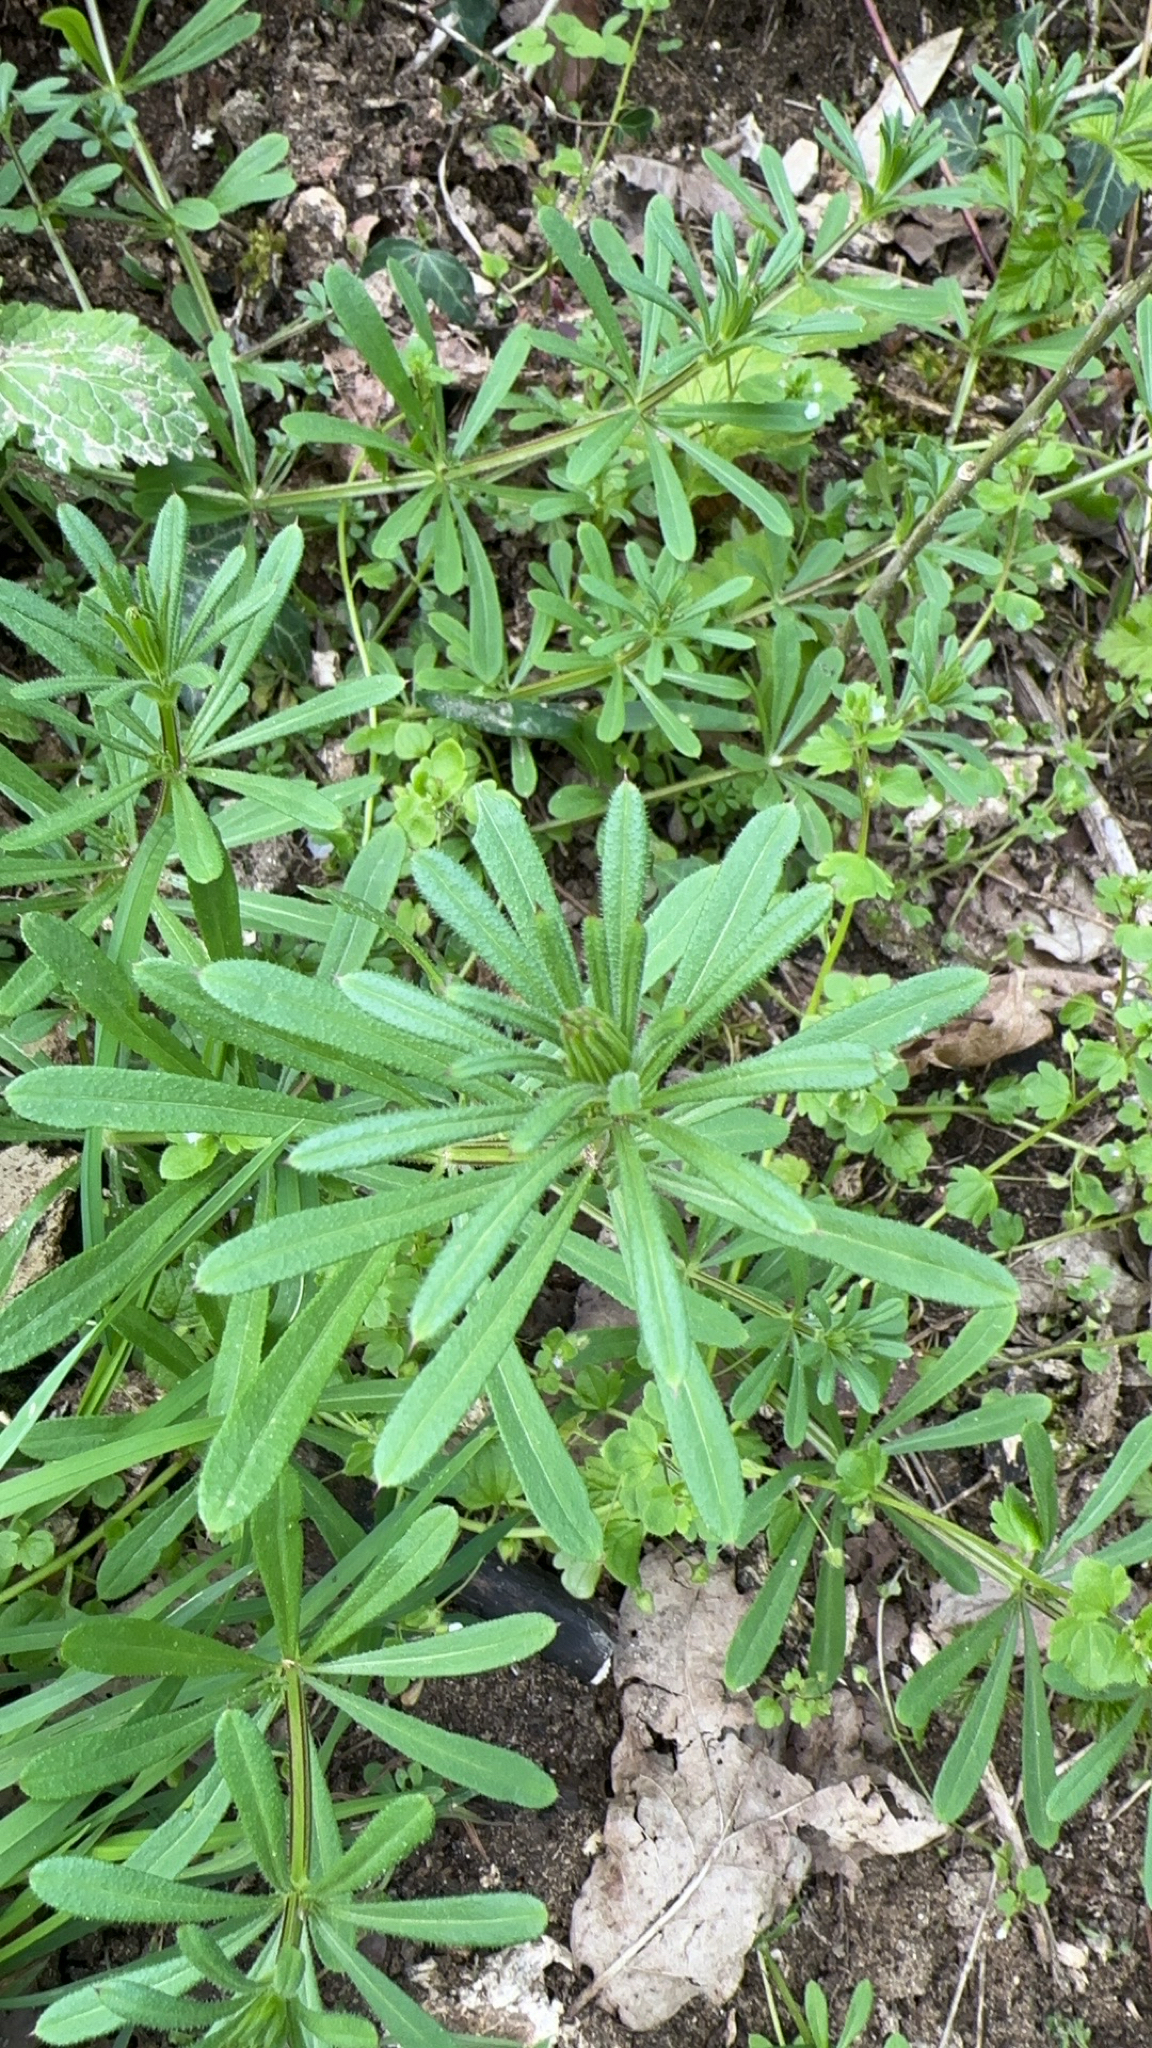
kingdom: Plantae
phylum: Tracheophyta
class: Magnoliopsida
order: Gentianales
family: Rubiaceae
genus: Galium
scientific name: Galium aparine
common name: Cleavers
